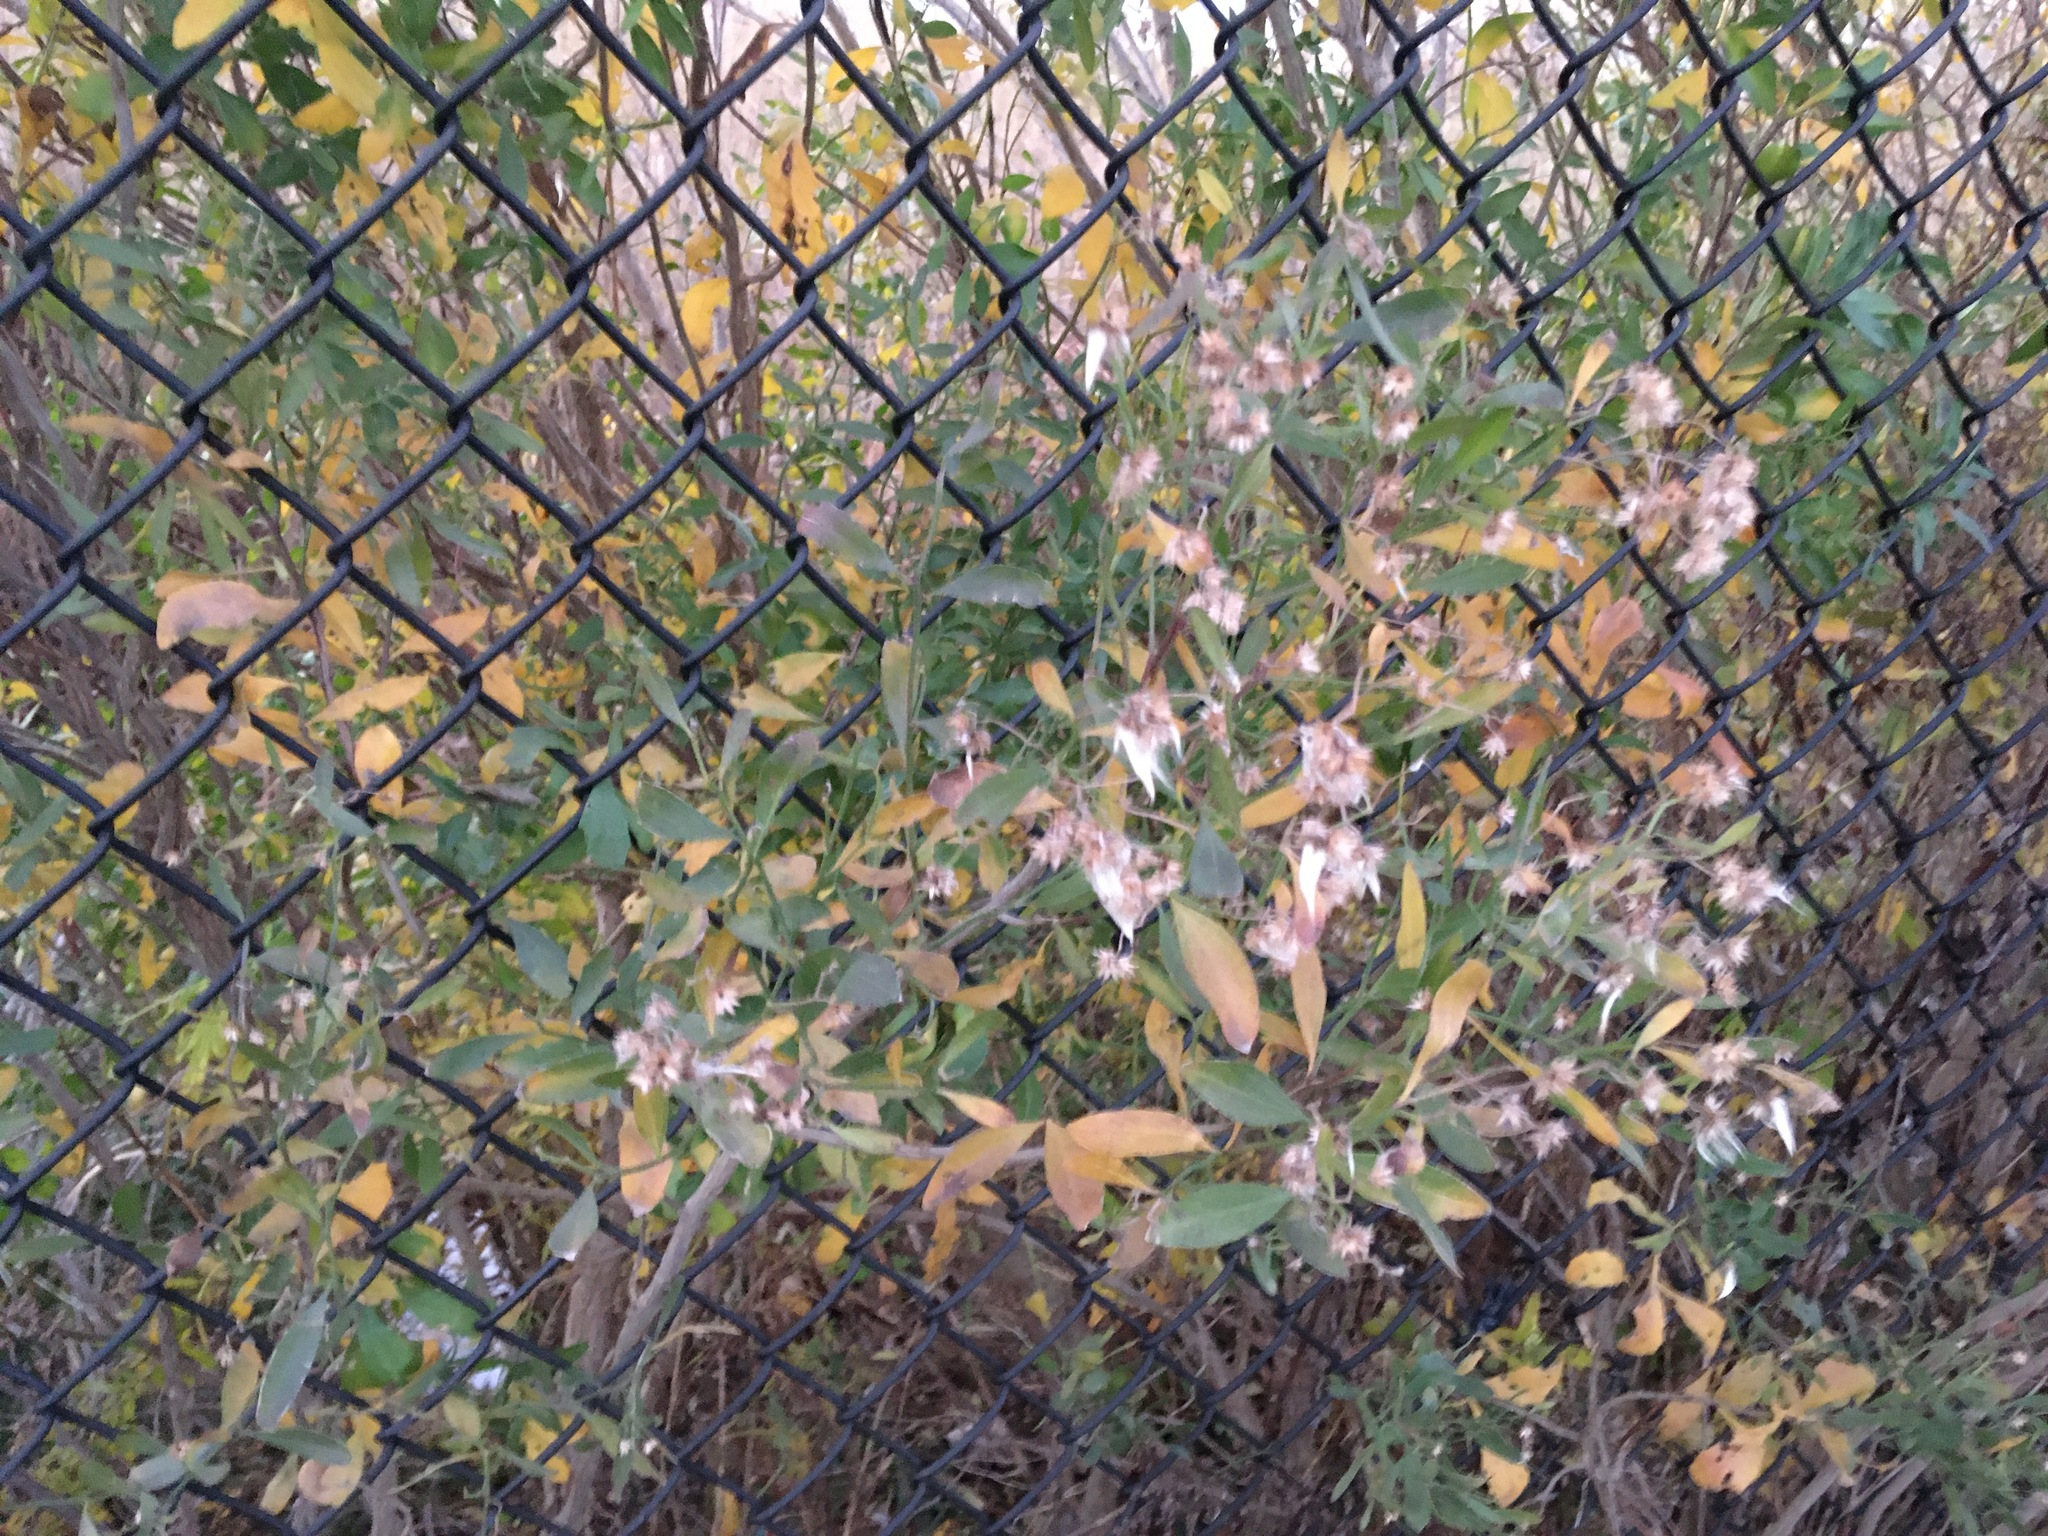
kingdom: Plantae
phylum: Tracheophyta
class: Magnoliopsida
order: Asterales
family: Asteraceae
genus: Baccharis
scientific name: Baccharis halimifolia
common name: Eastern baccharis
